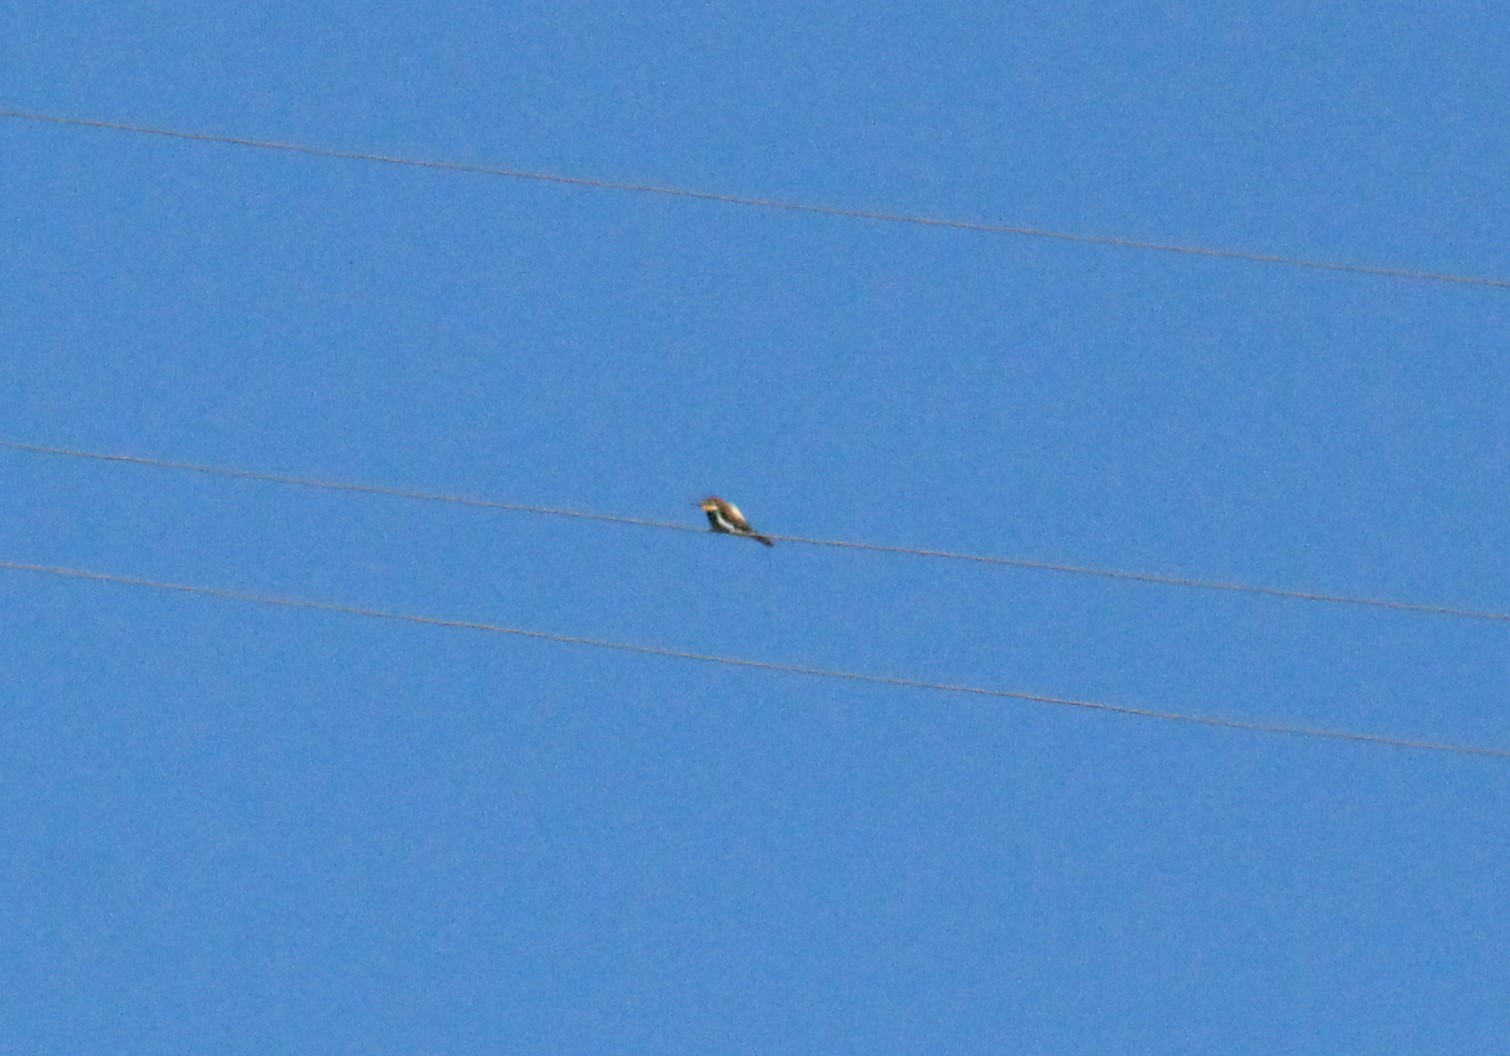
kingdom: Animalia
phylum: Chordata
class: Aves
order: Coraciiformes
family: Meropidae
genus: Merops
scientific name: Merops apiaster
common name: European bee-eater
